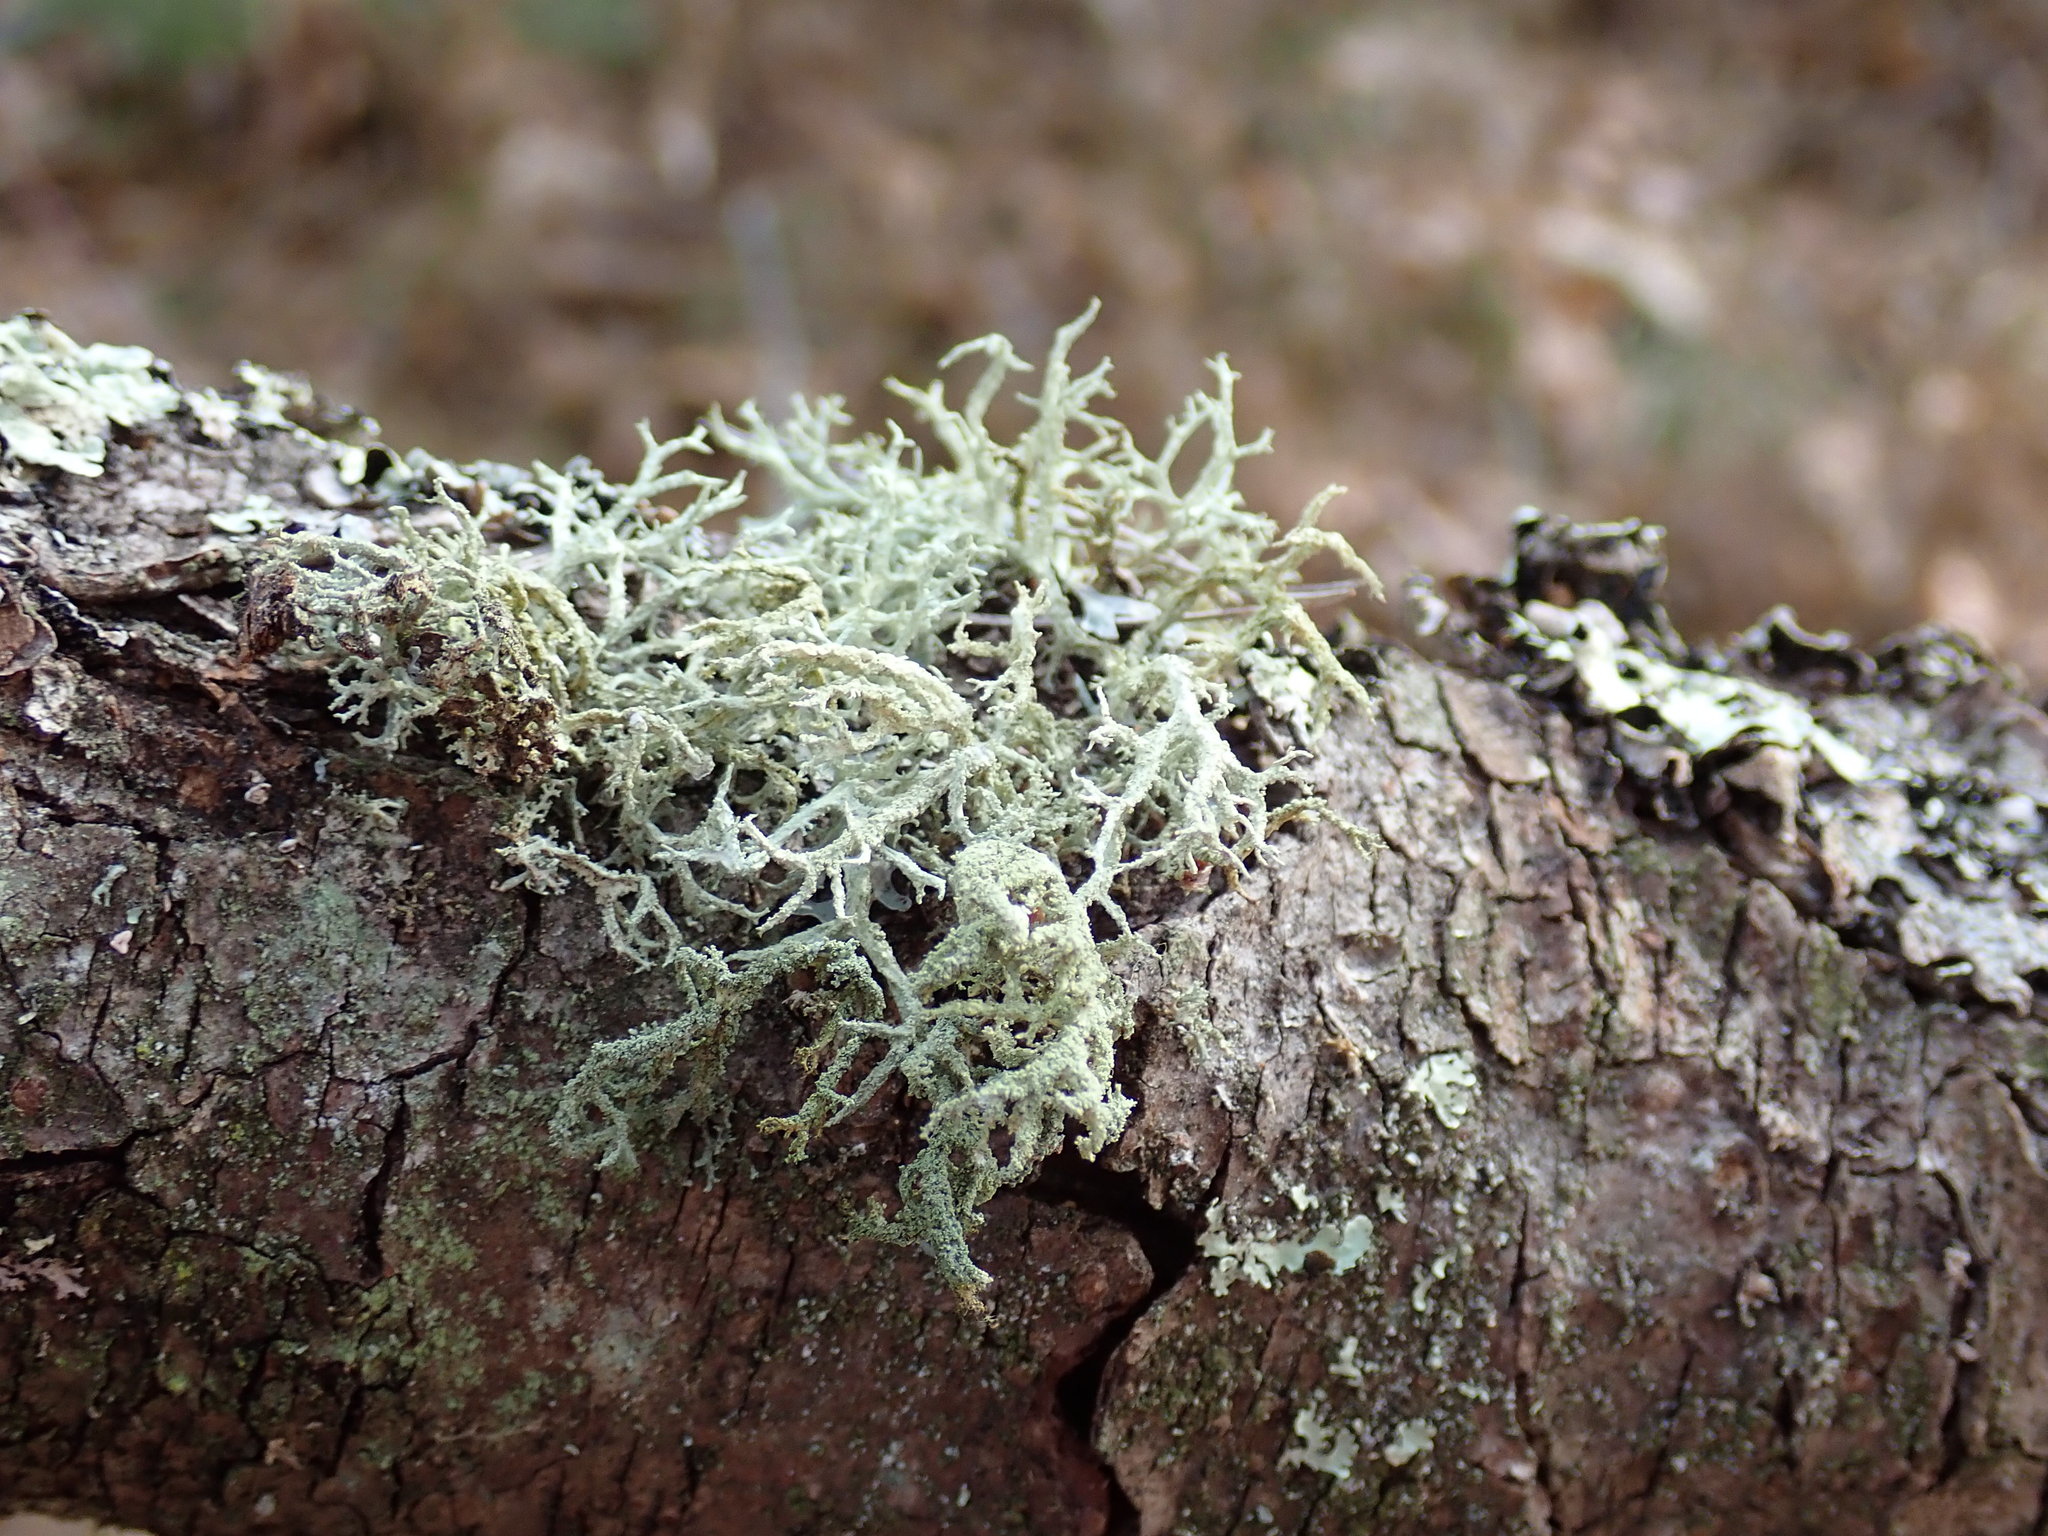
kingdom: Fungi
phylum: Ascomycota
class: Lecanoromycetes
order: Lecanorales
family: Parmeliaceae
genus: Evernia
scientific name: Evernia mesomorpha
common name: Boreal oak moss lichen
